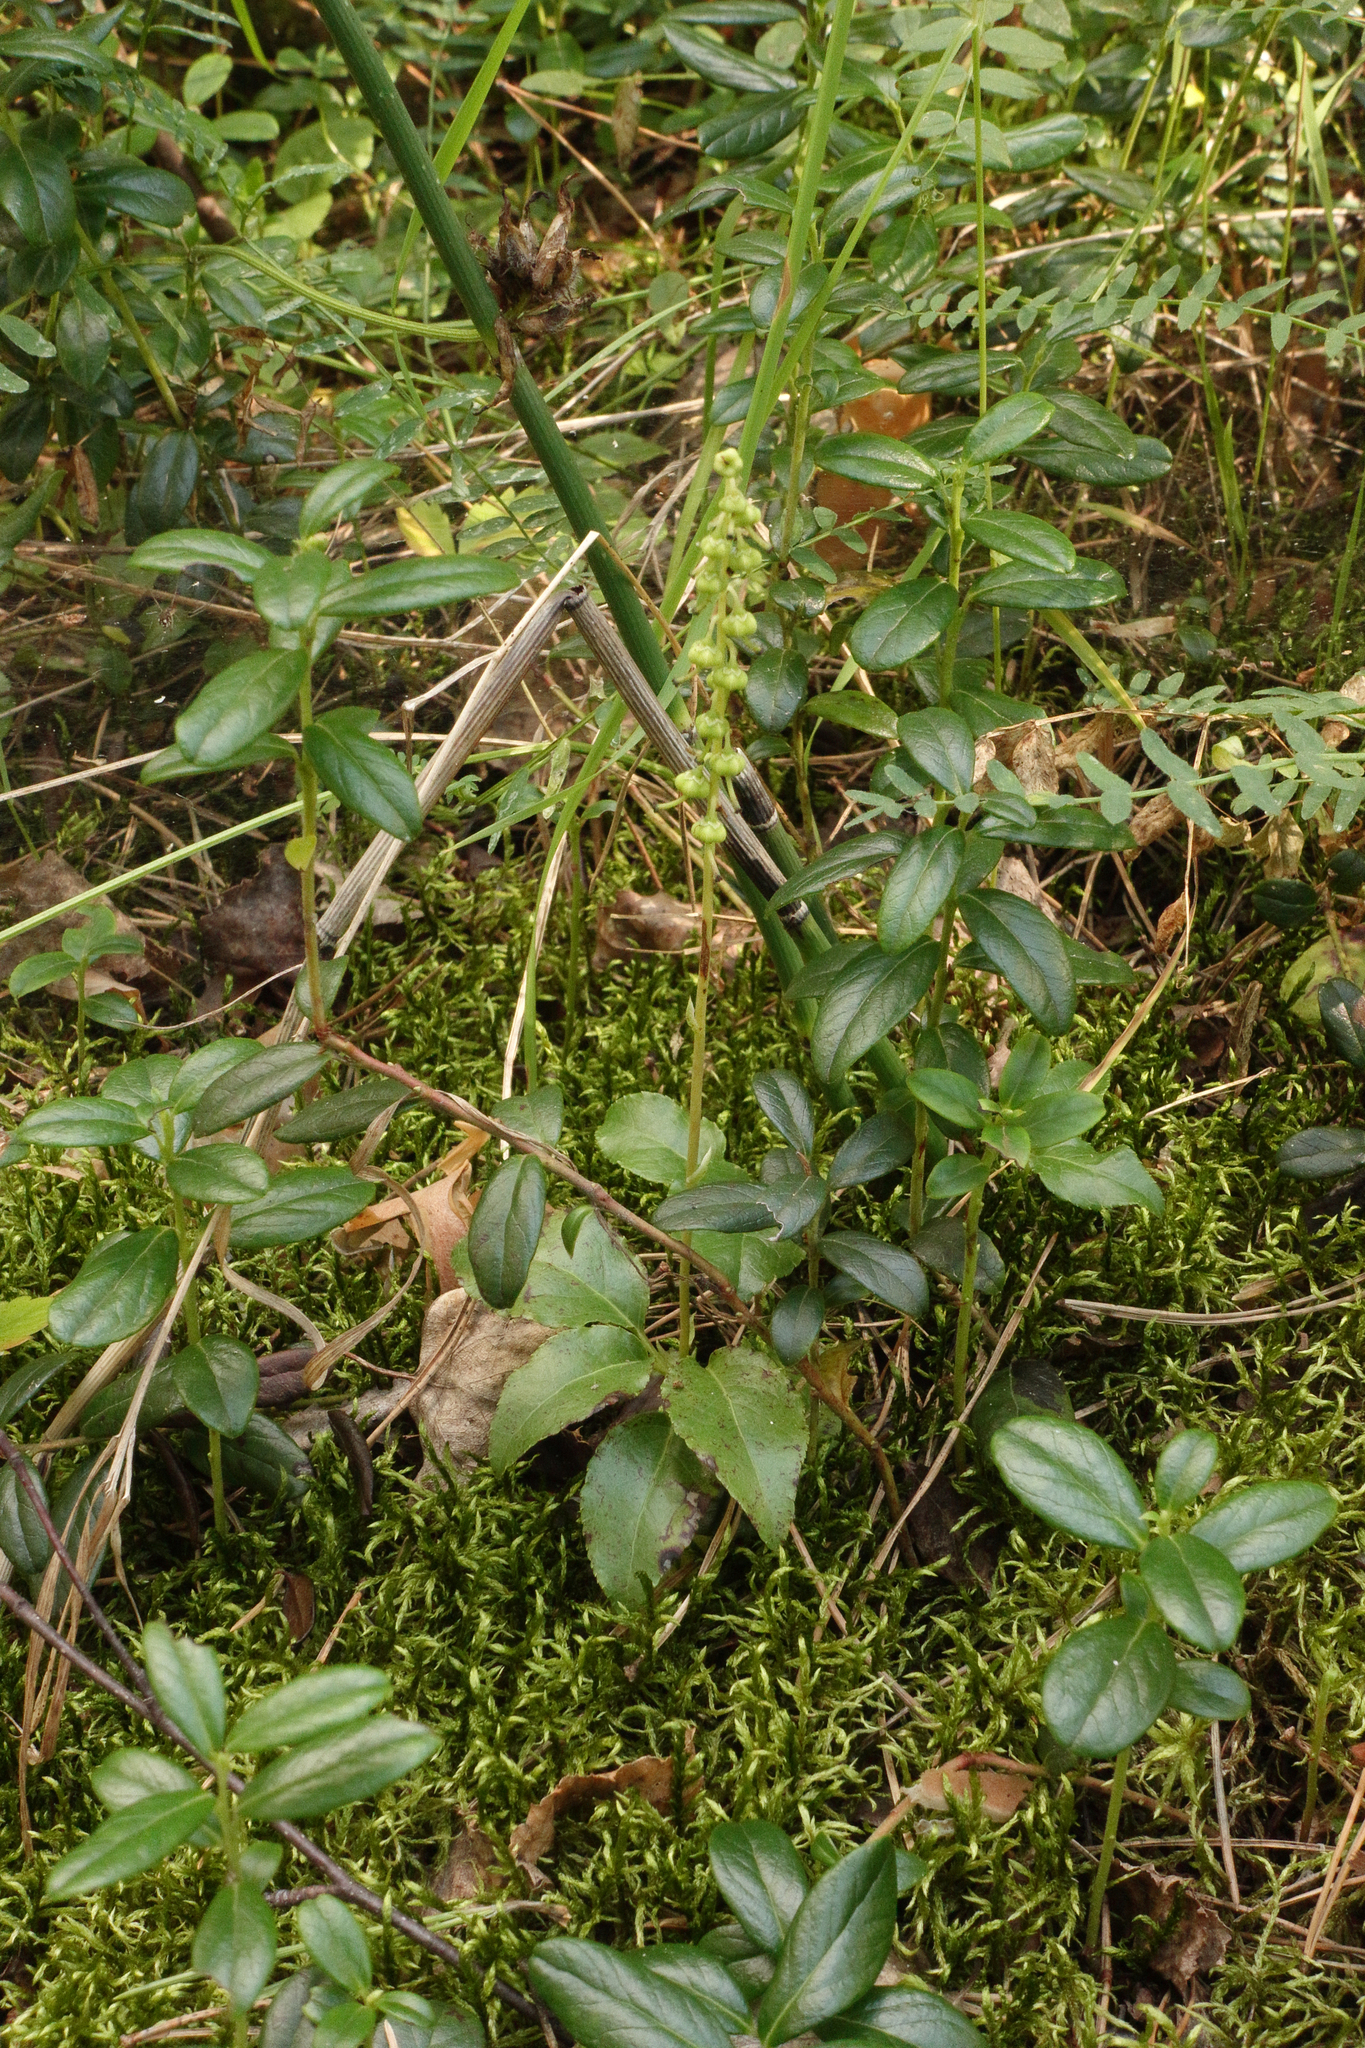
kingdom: Plantae
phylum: Tracheophyta
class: Magnoliopsida
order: Ericales
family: Ericaceae
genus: Orthilia
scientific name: Orthilia secunda
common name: One-sided orthilia
